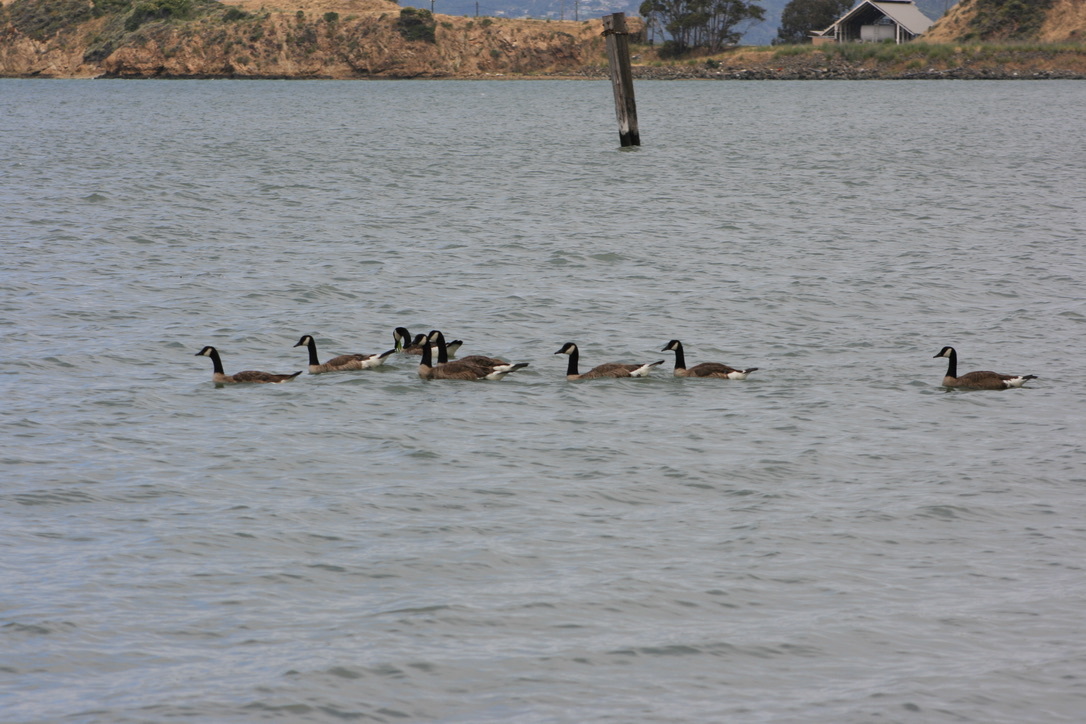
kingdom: Animalia
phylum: Chordata
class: Aves
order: Anseriformes
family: Anatidae
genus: Branta
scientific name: Branta canadensis
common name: Canada goose
